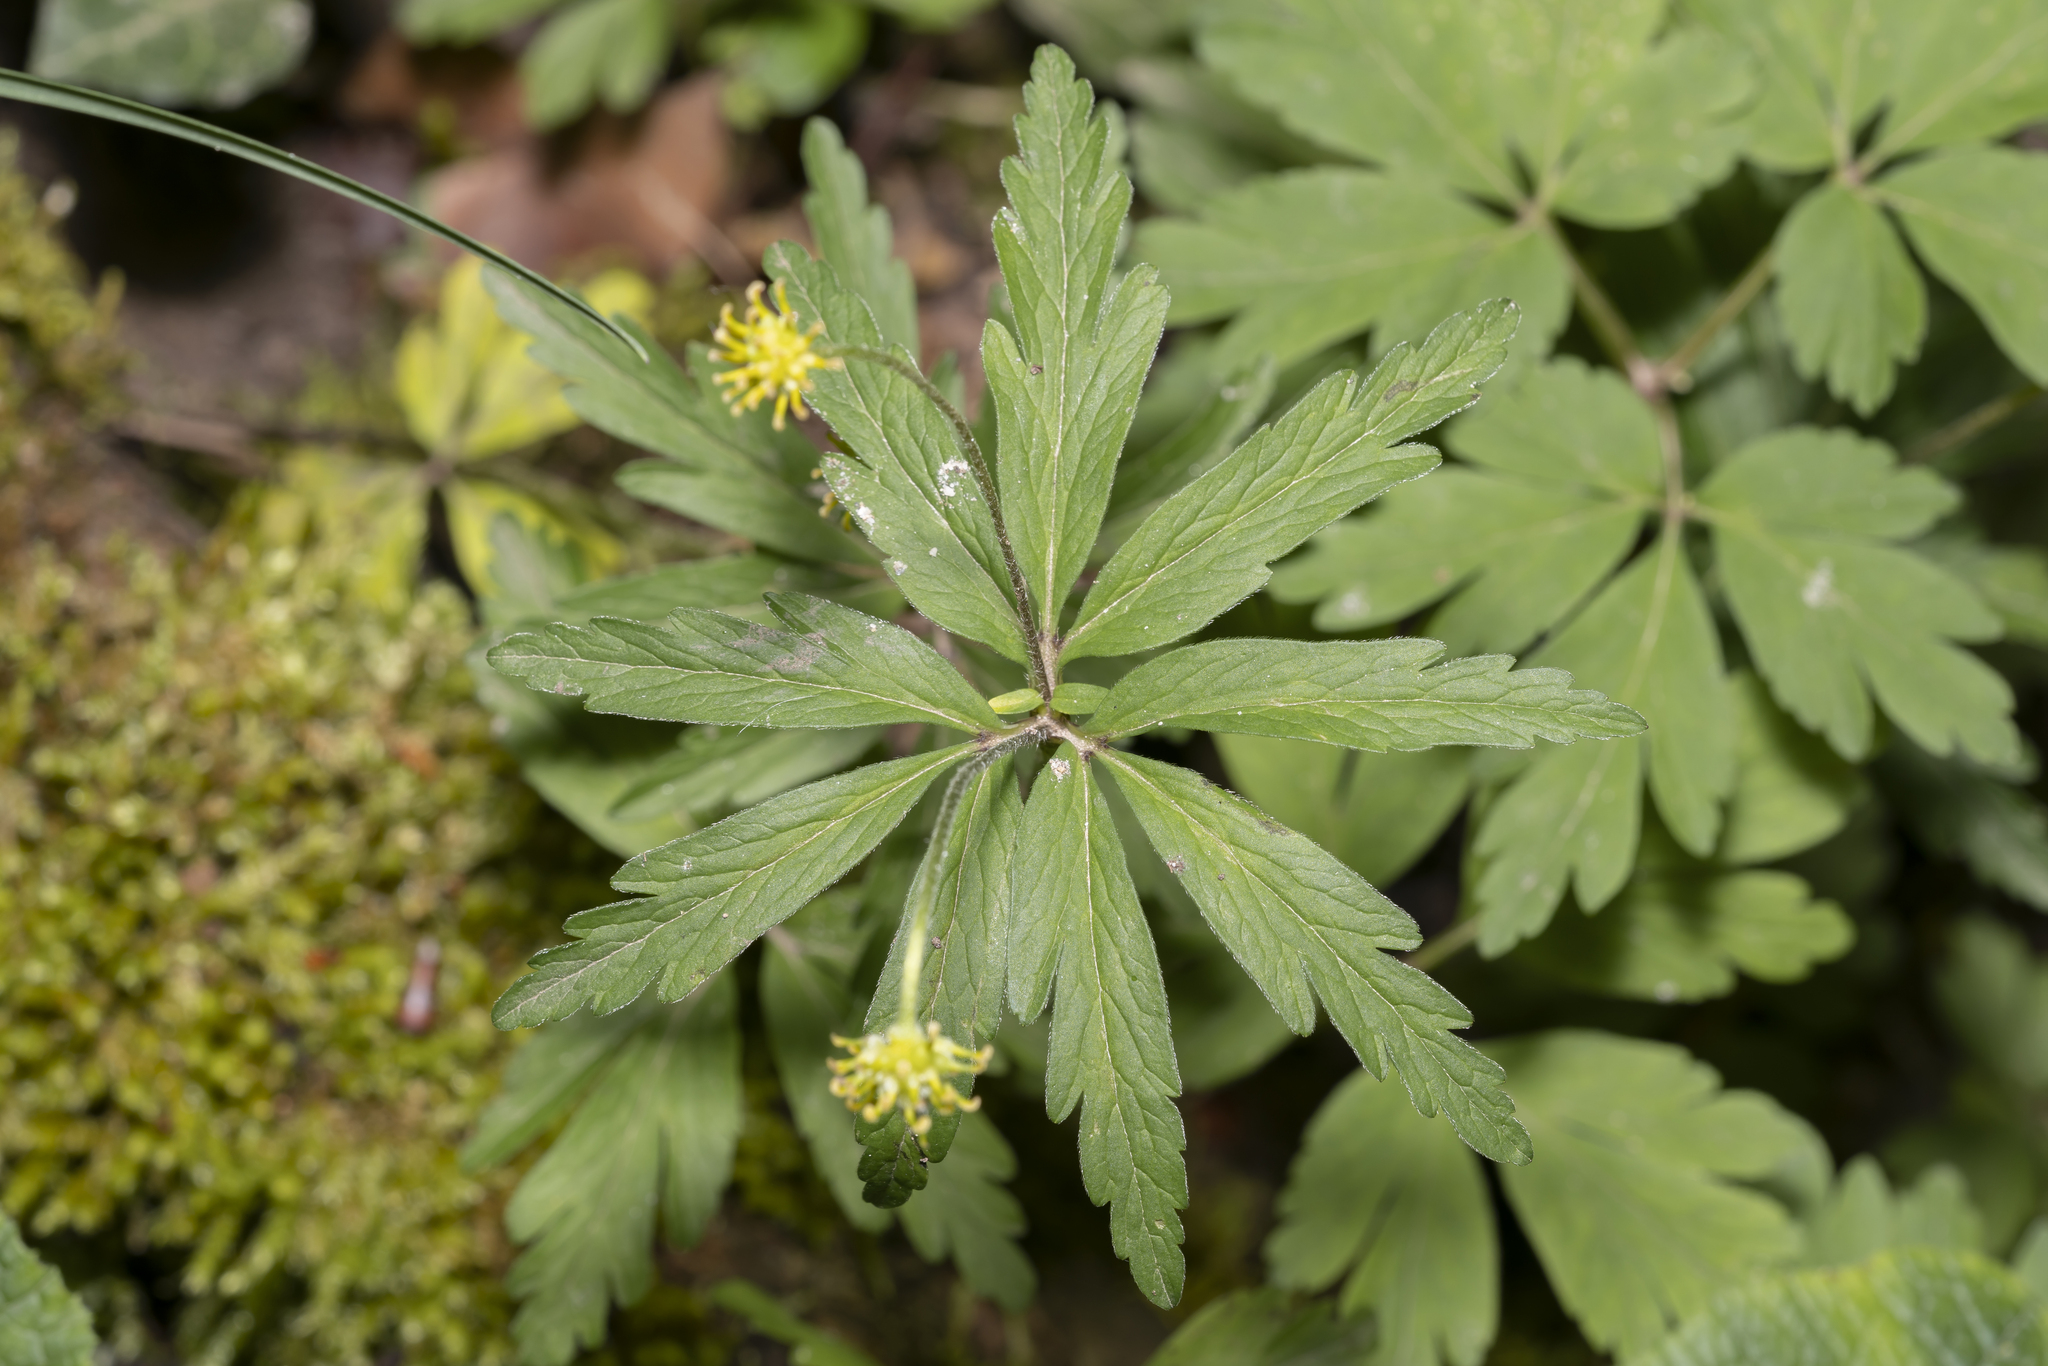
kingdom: Plantae
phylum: Tracheophyta
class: Magnoliopsida
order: Ranunculales
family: Ranunculaceae
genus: Anemone
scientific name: Anemone ranunculoides
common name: Yellow anemone
